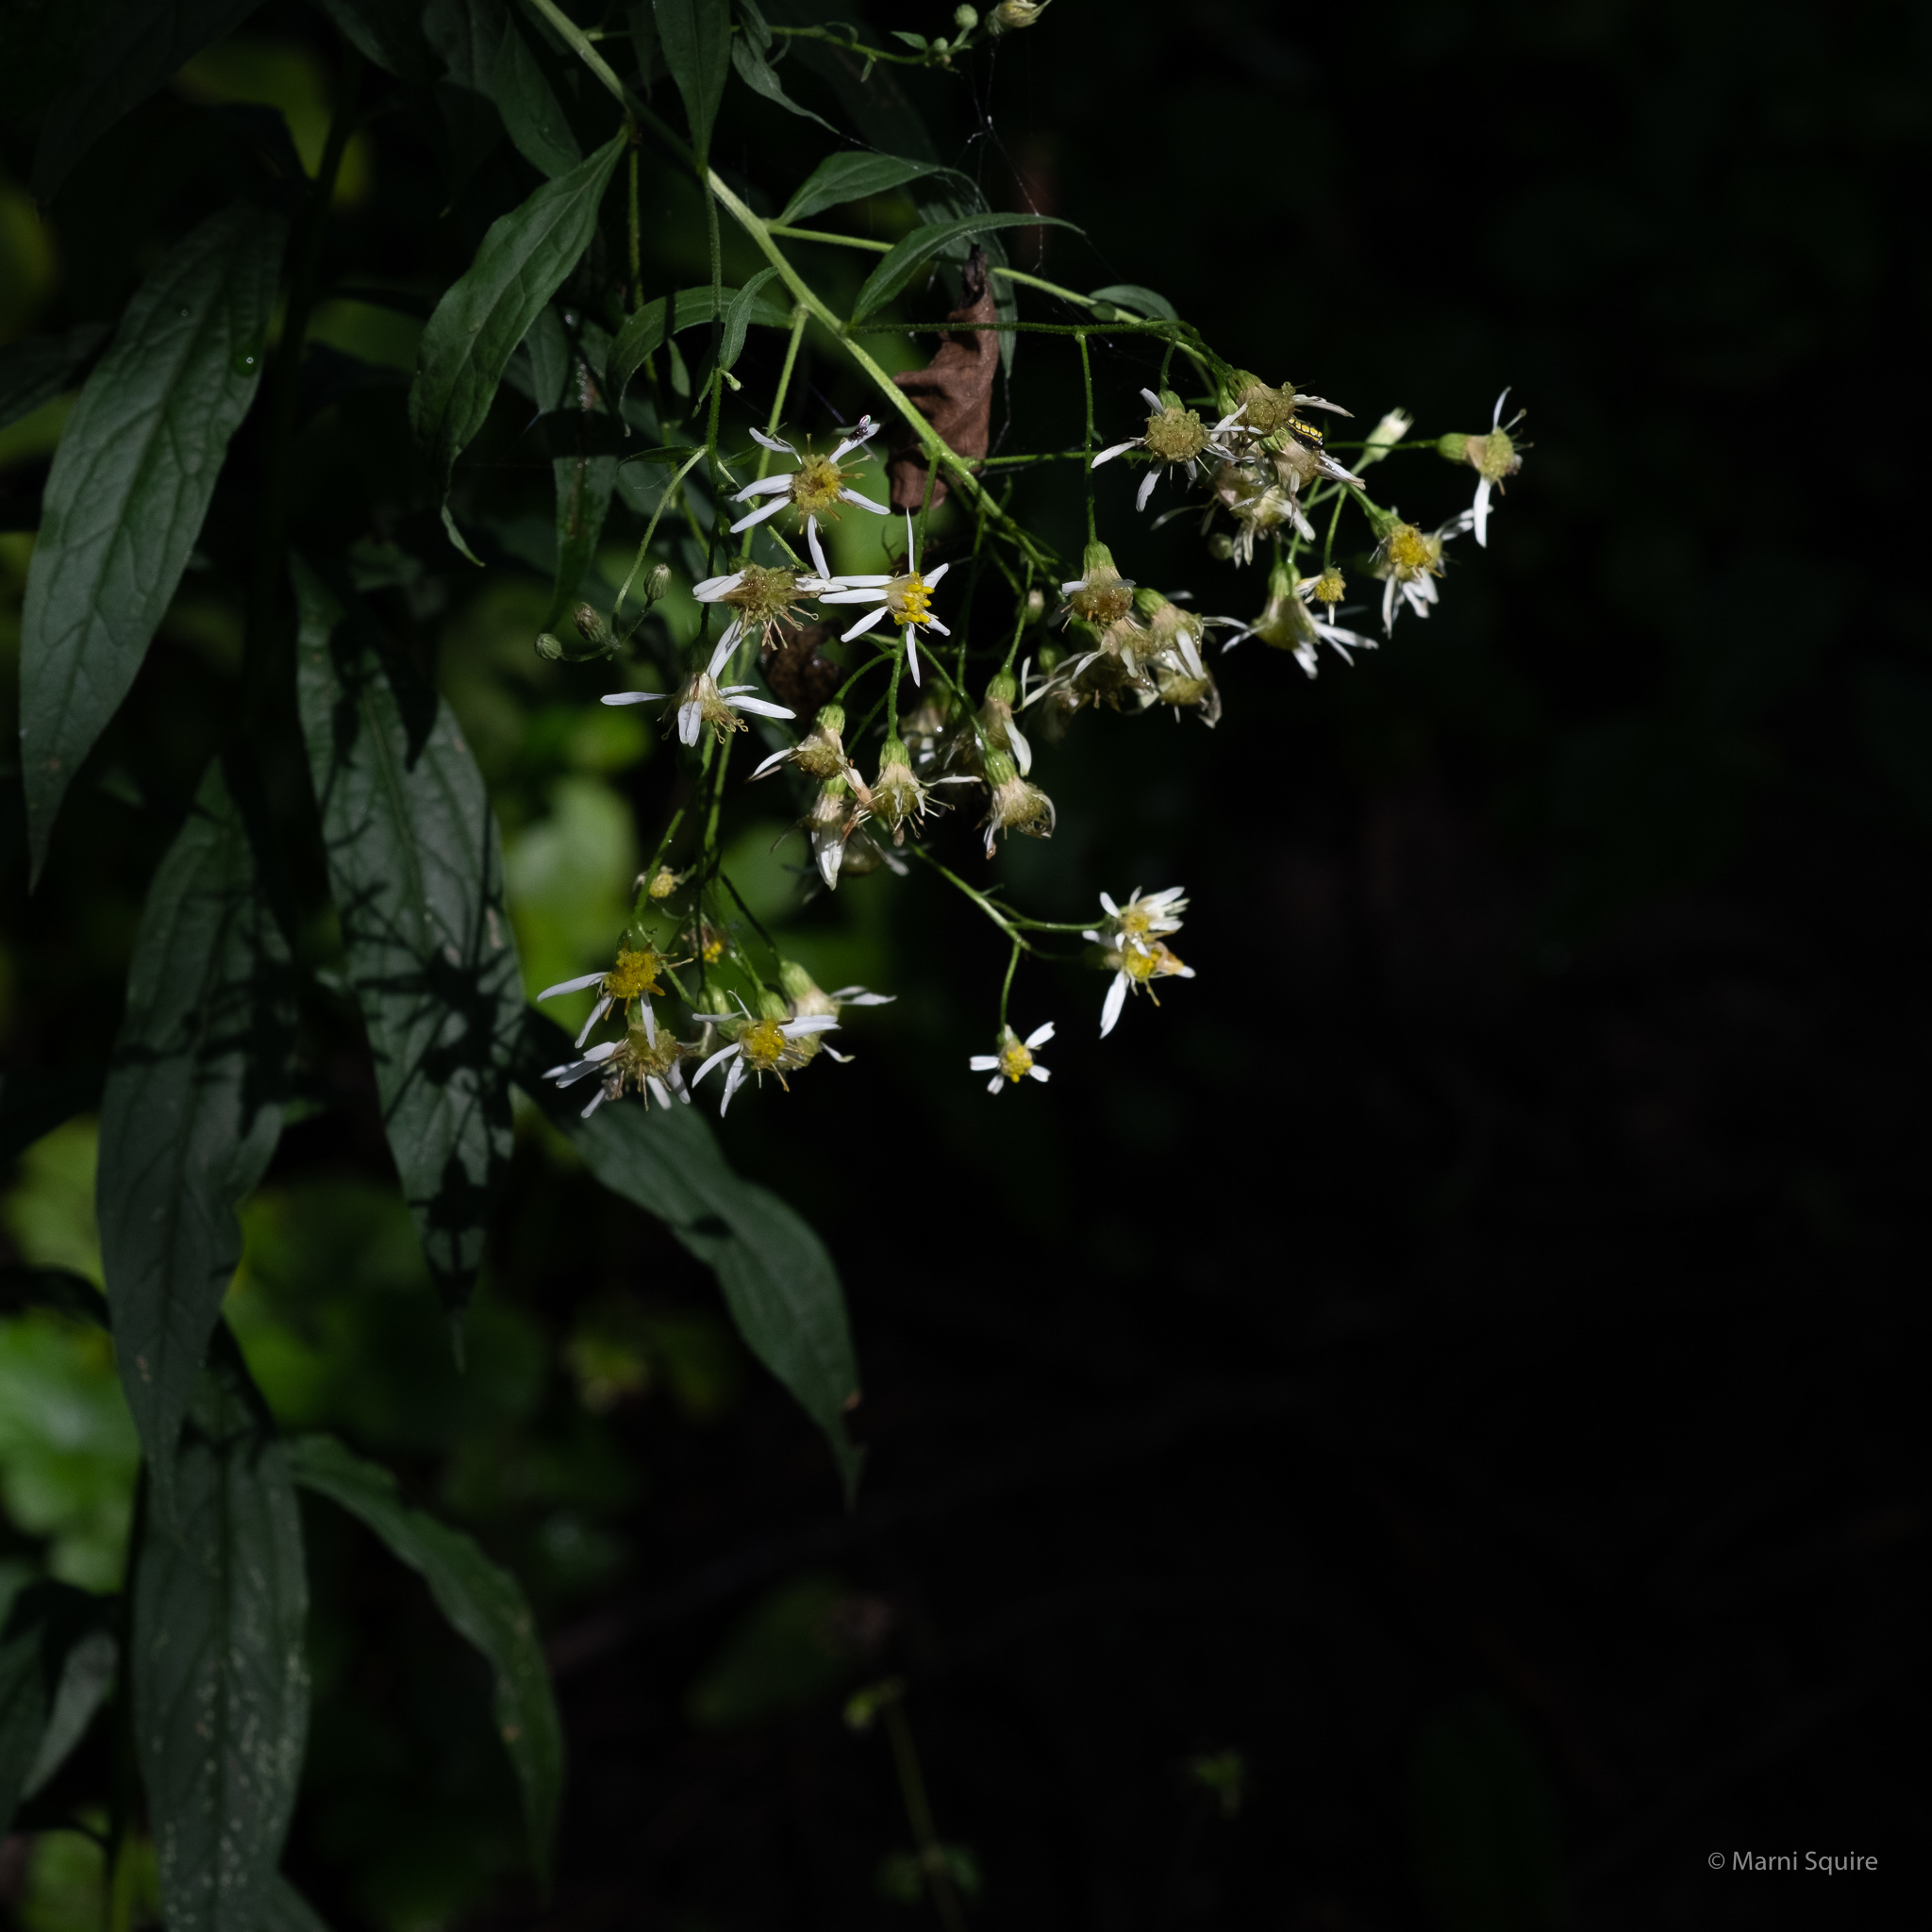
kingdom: Plantae
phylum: Tracheophyta
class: Magnoliopsida
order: Asterales
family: Asteraceae
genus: Doellingeria
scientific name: Doellingeria umbellata
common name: Flat-top white aster
